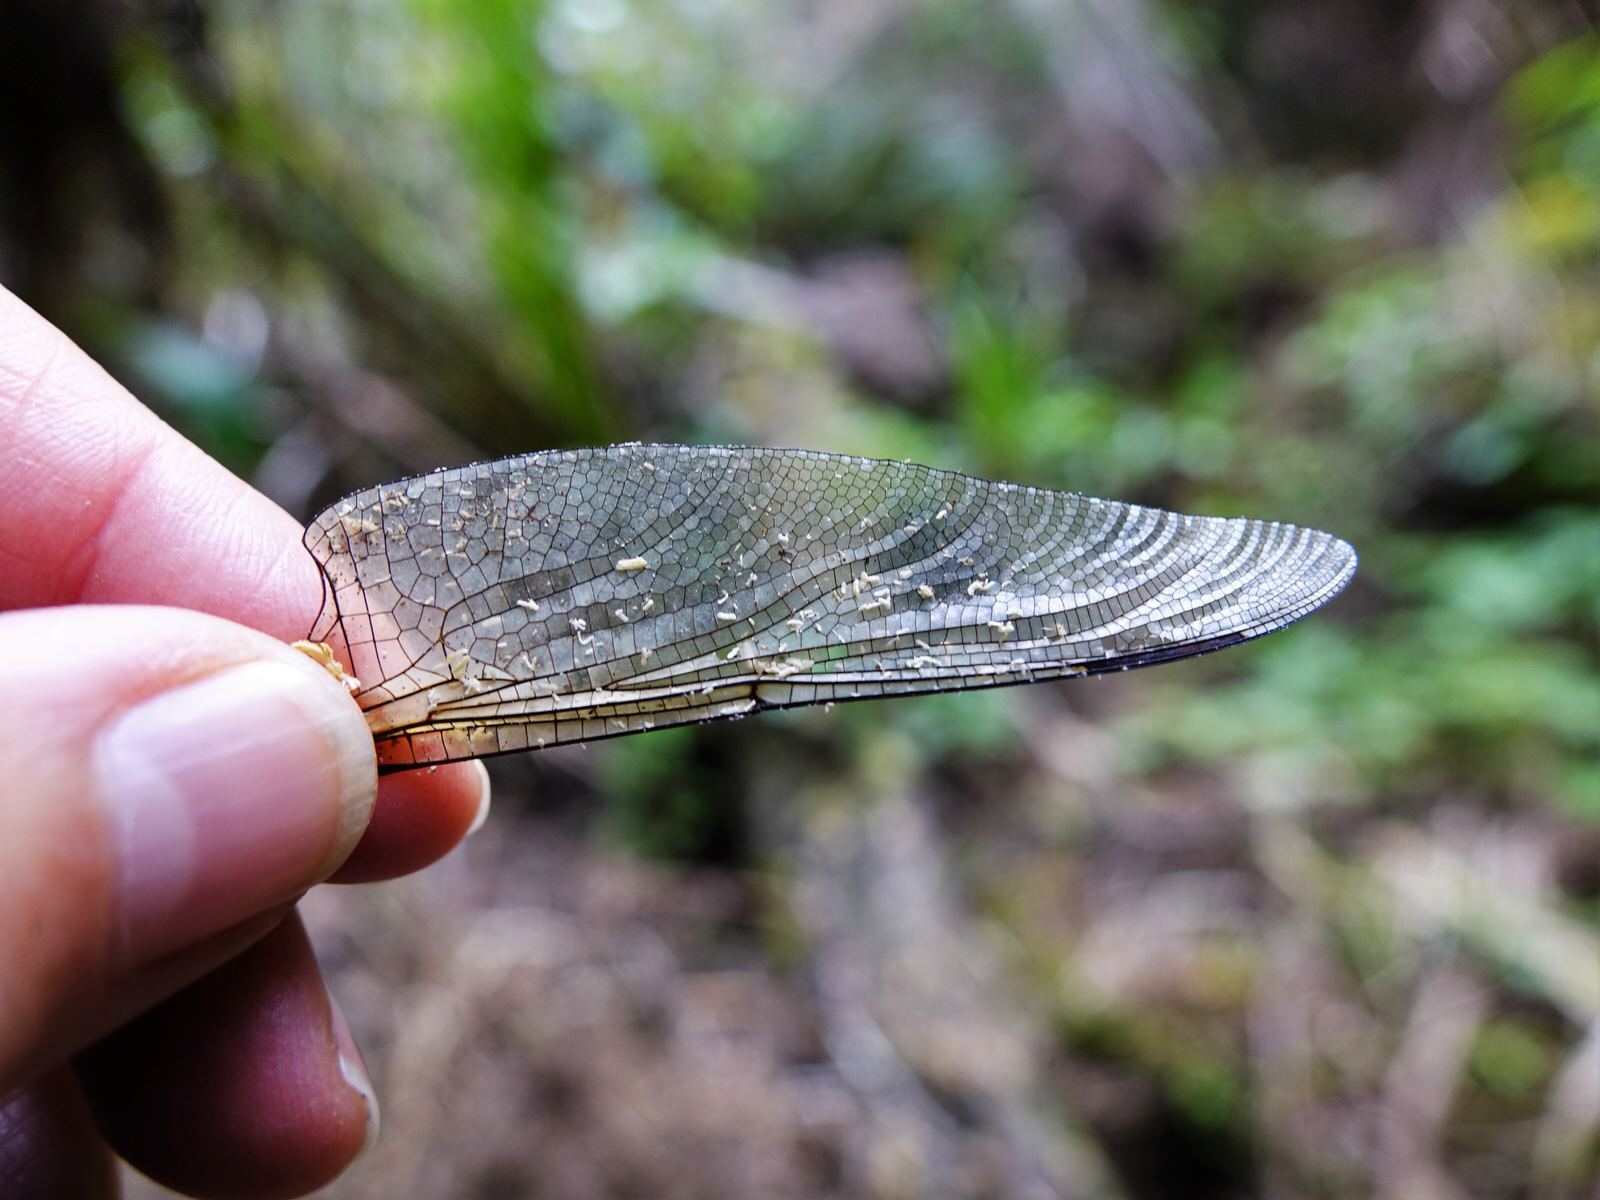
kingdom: Animalia
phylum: Arthropoda
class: Insecta
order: Odonata
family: Petaluridae
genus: Uropetala
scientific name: Uropetala carovei
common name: Bush giant dragonfly
